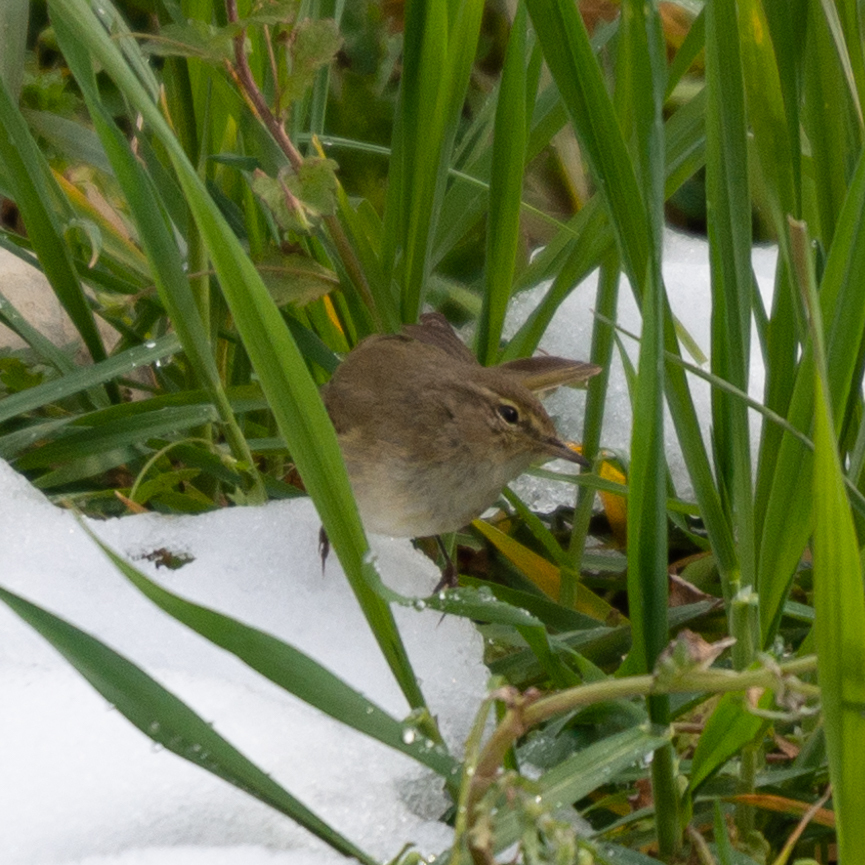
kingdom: Animalia
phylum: Chordata
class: Aves
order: Passeriformes
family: Phylloscopidae
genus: Phylloscopus
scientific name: Phylloscopus collybita
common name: Common chiffchaff
